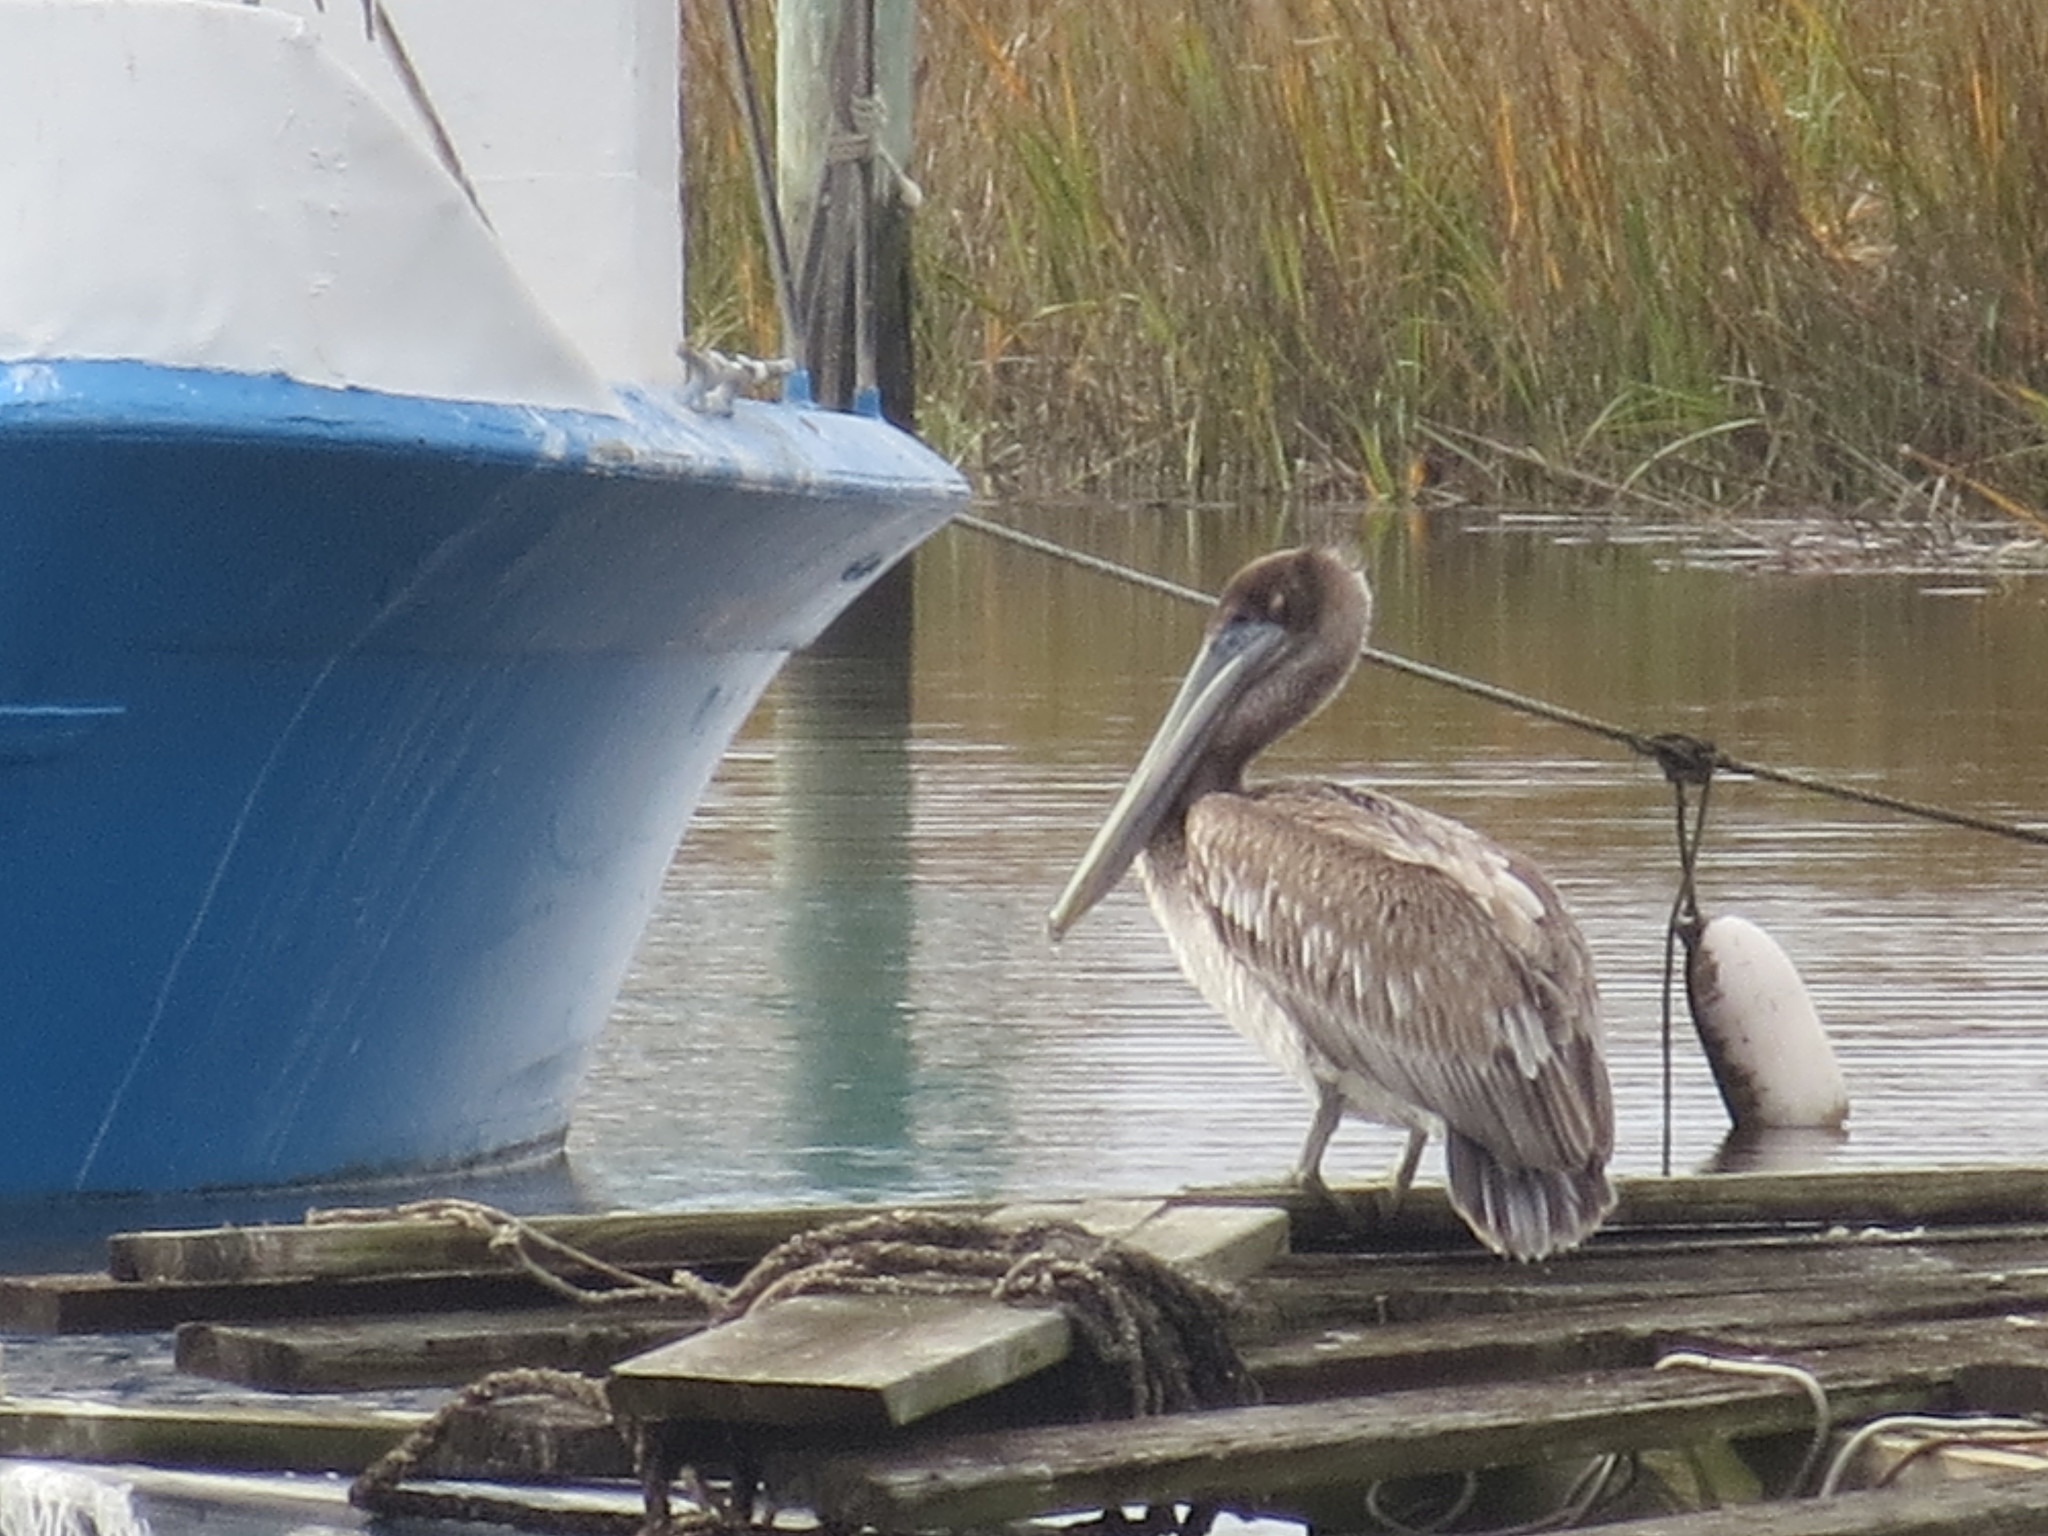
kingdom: Animalia
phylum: Chordata
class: Aves
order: Pelecaniformes
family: Pelecanidae
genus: Pelecanus
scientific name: Pelecanus occidentalis
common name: Brown pelican
